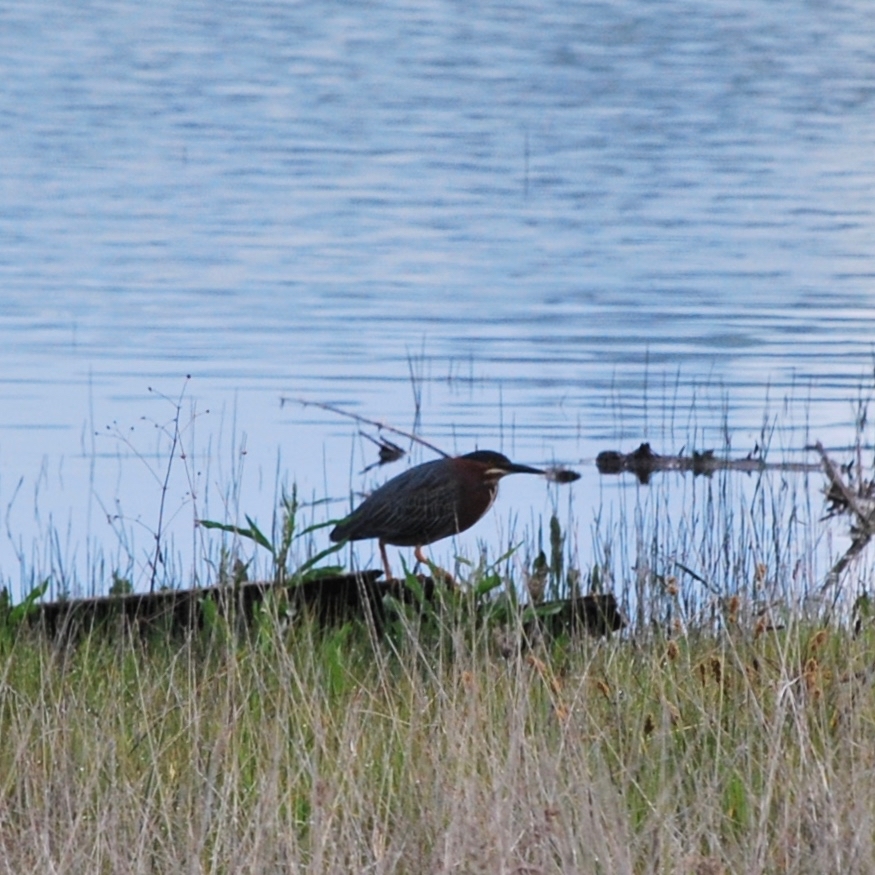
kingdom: Animalia
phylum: Chordata
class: Aves
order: Pelecaniformes
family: Ardeidae
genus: Butorides
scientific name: Butorides virescens
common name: Green heron
